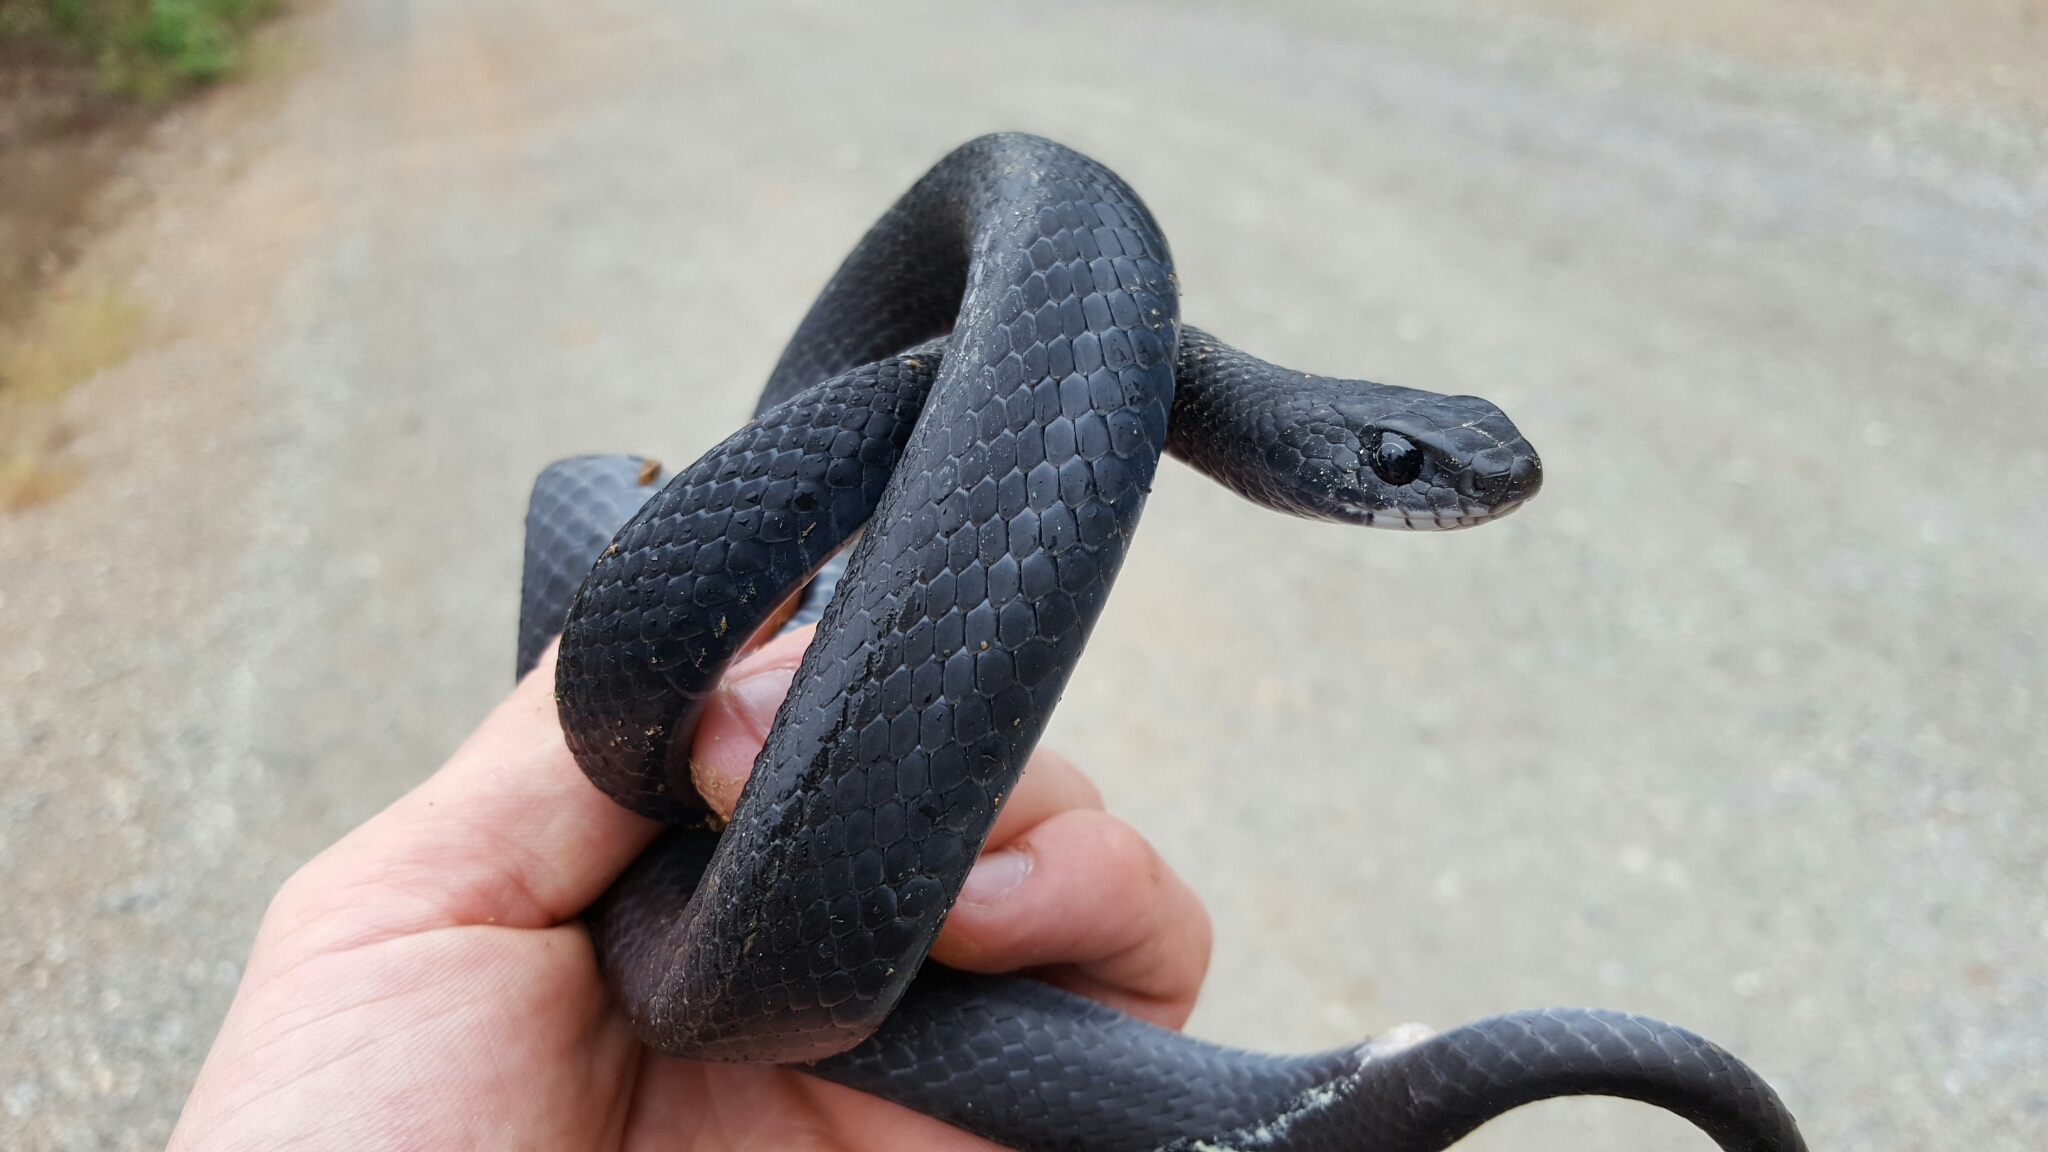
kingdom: Animalia
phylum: Chordata
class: Squamata
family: Colubridae
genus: Coluber
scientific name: Coluber constrictor
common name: Eastern racer
